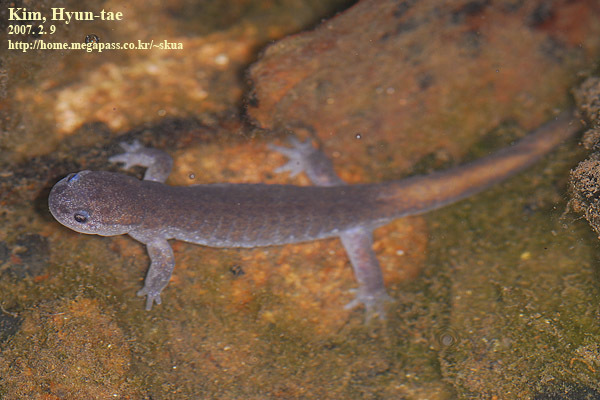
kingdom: Animalia
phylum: Chordata
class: Amphibia
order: Caudata
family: Hynobiidae
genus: Hynobius
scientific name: Hynobius quelpaertensis
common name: Cheju salamander
